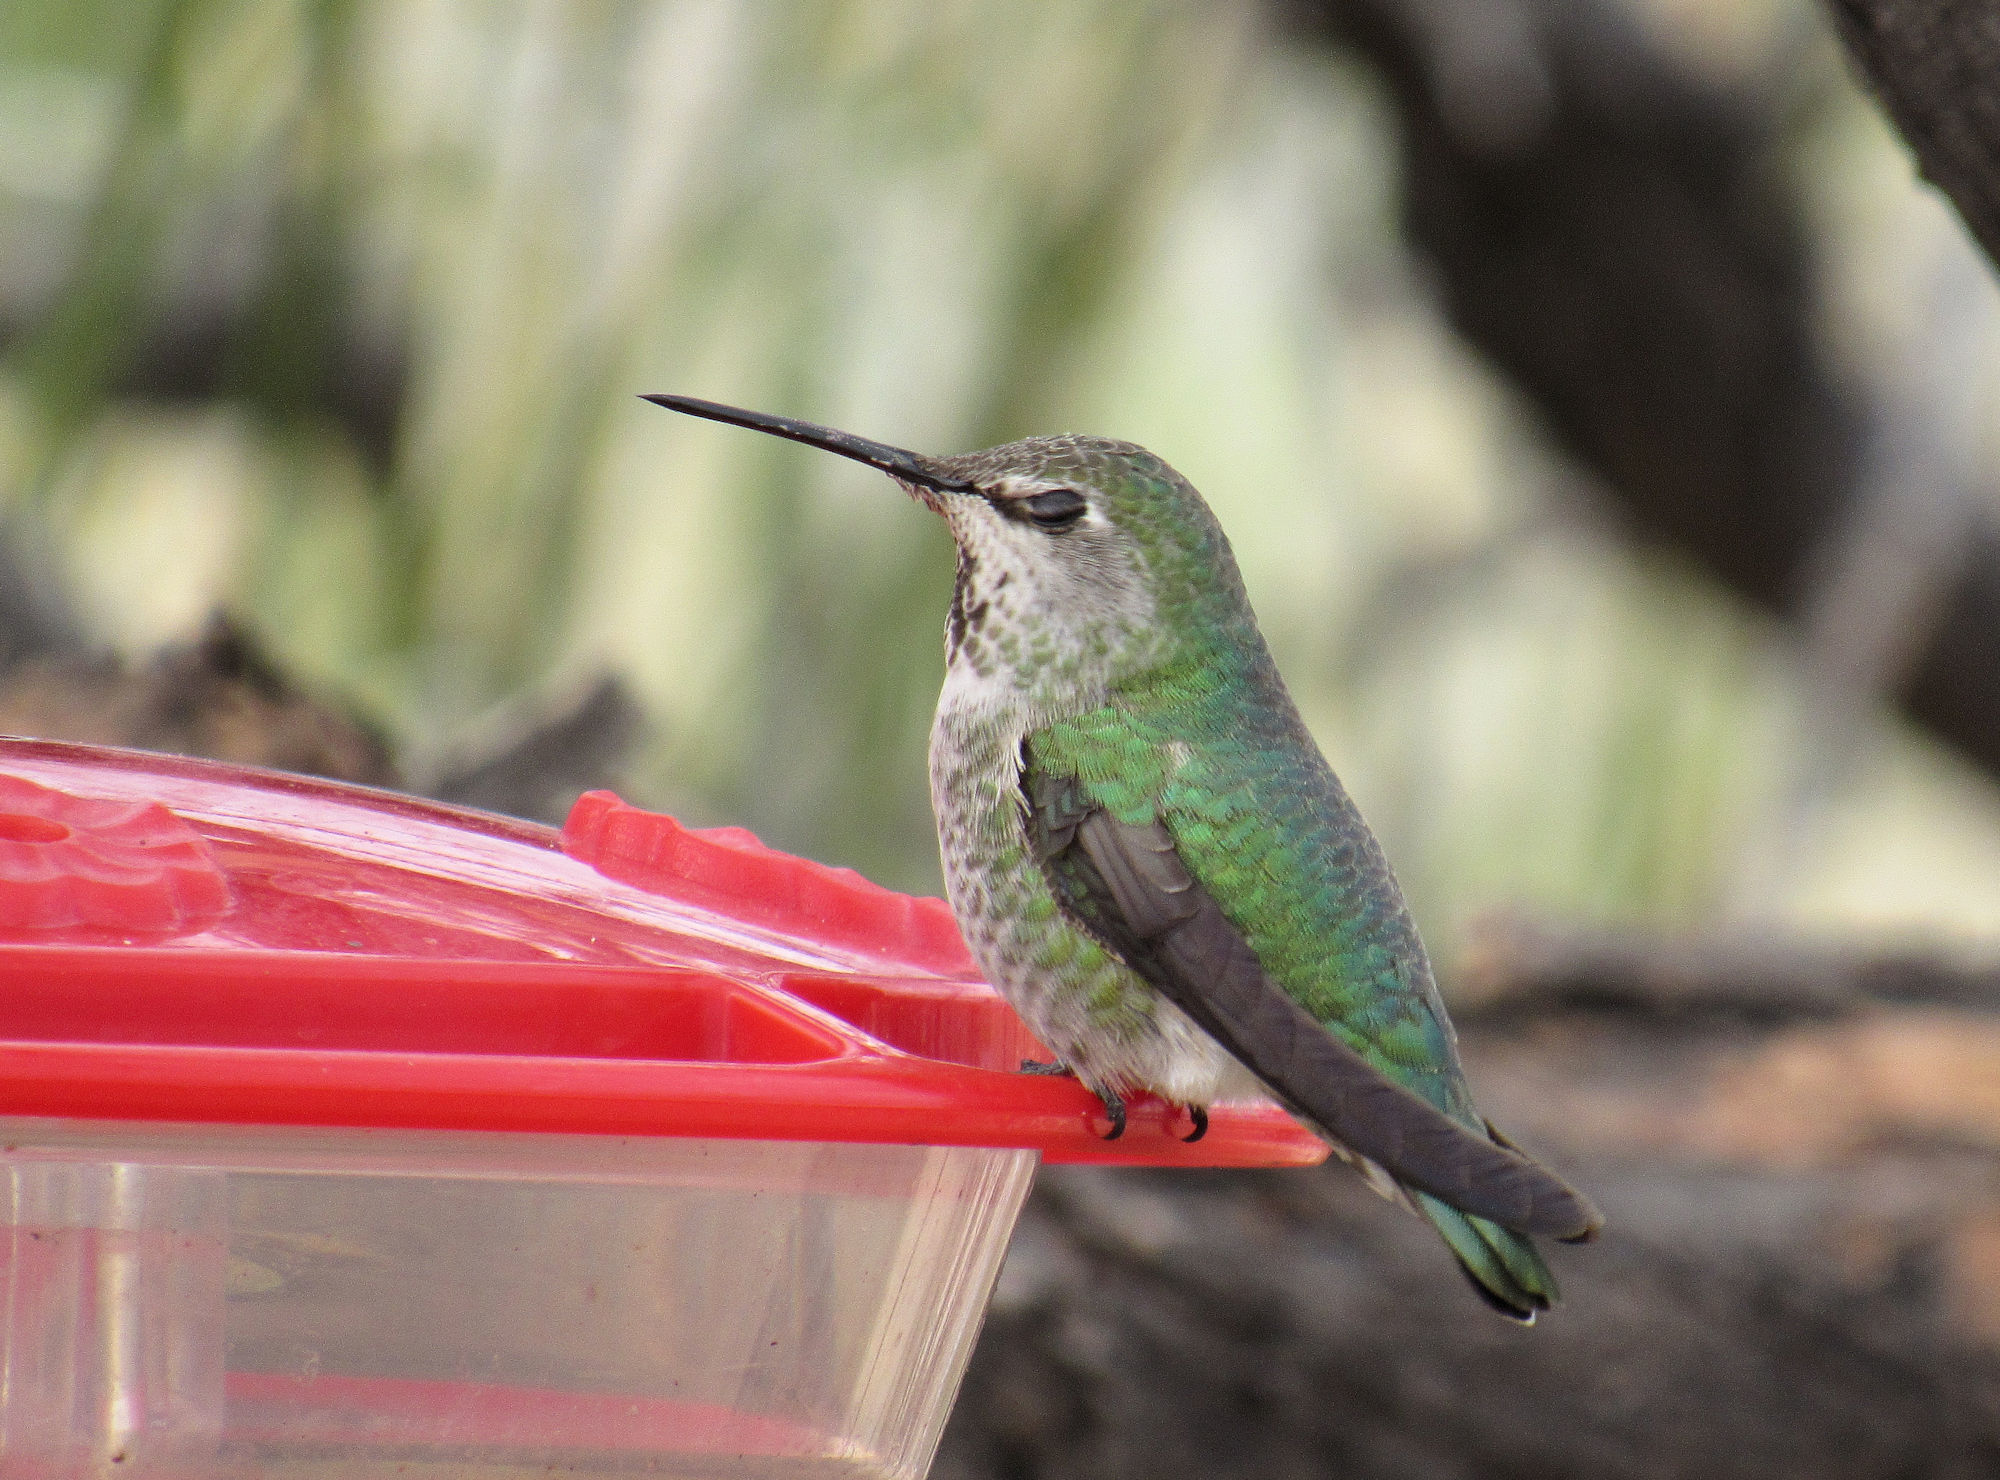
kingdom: Animalia
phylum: Chordata
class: Aves
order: Apodiformes
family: Trochilidae
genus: Calypte
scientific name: Calypte anna
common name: Anna's hummingbird
